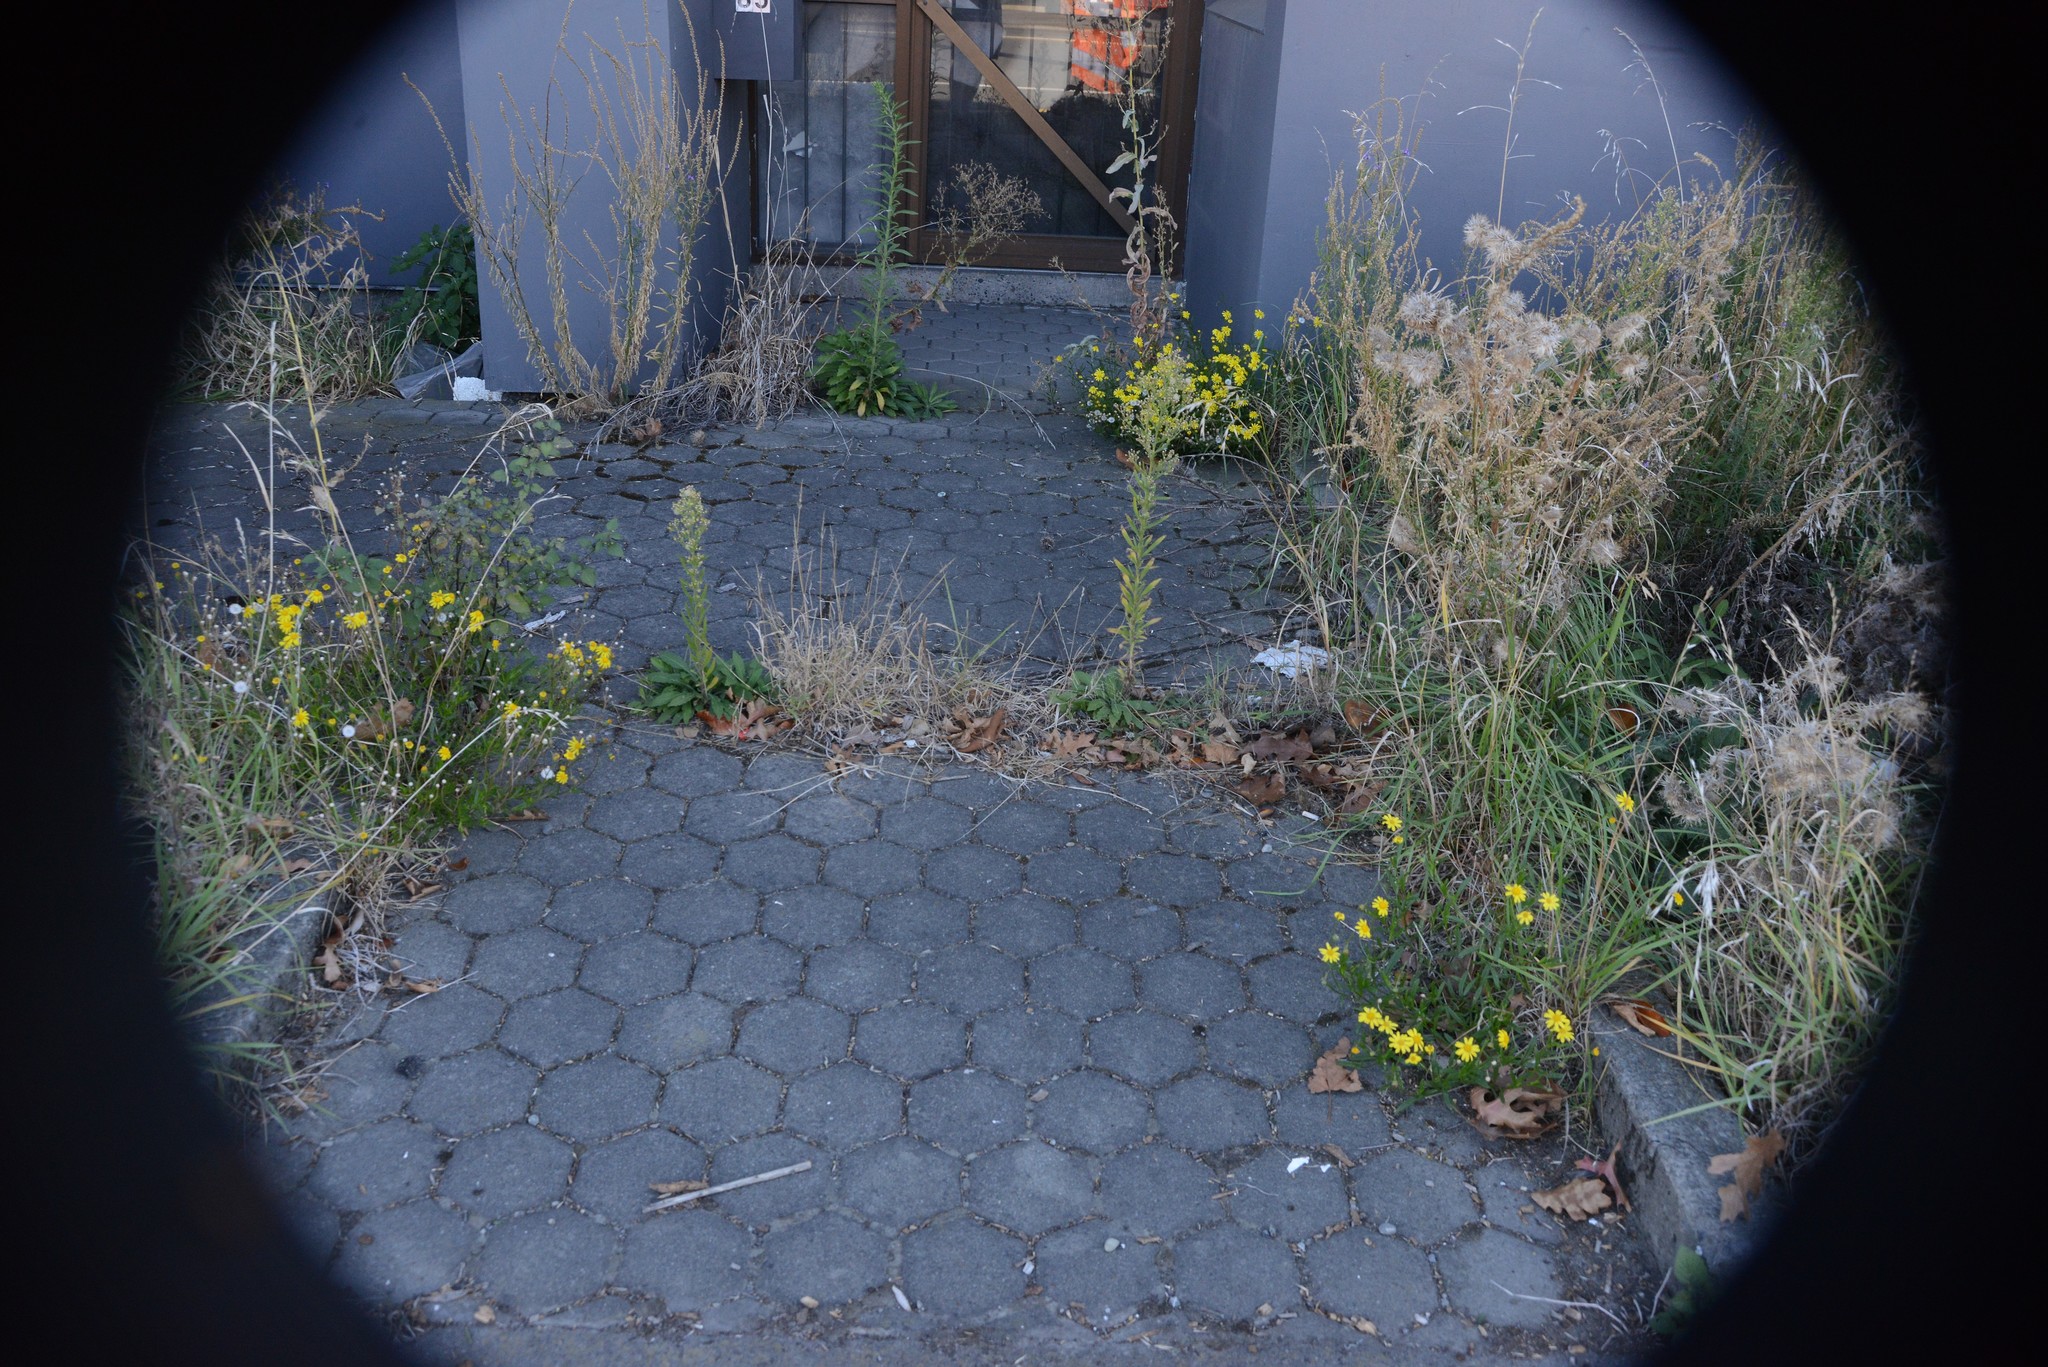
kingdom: Plantae
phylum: Tracheophyta
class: Magnoliopsida
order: Asterales
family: Asteraceae
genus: Senecio
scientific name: Senecio skirrhodon
